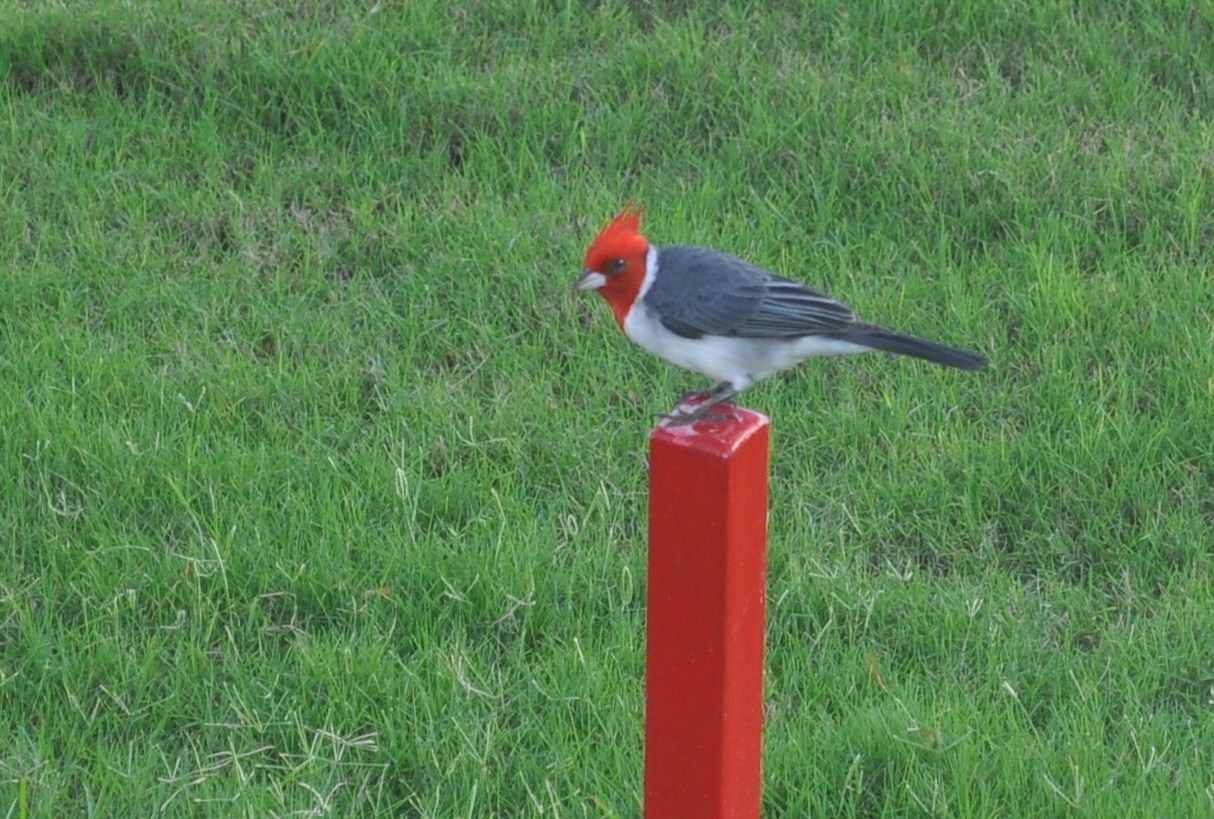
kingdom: Animalia
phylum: Chordata
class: Aves
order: Passeriformes
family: Thraupidae
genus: Paroaria
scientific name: Paroaria coronata
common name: Red-crested cardinal
